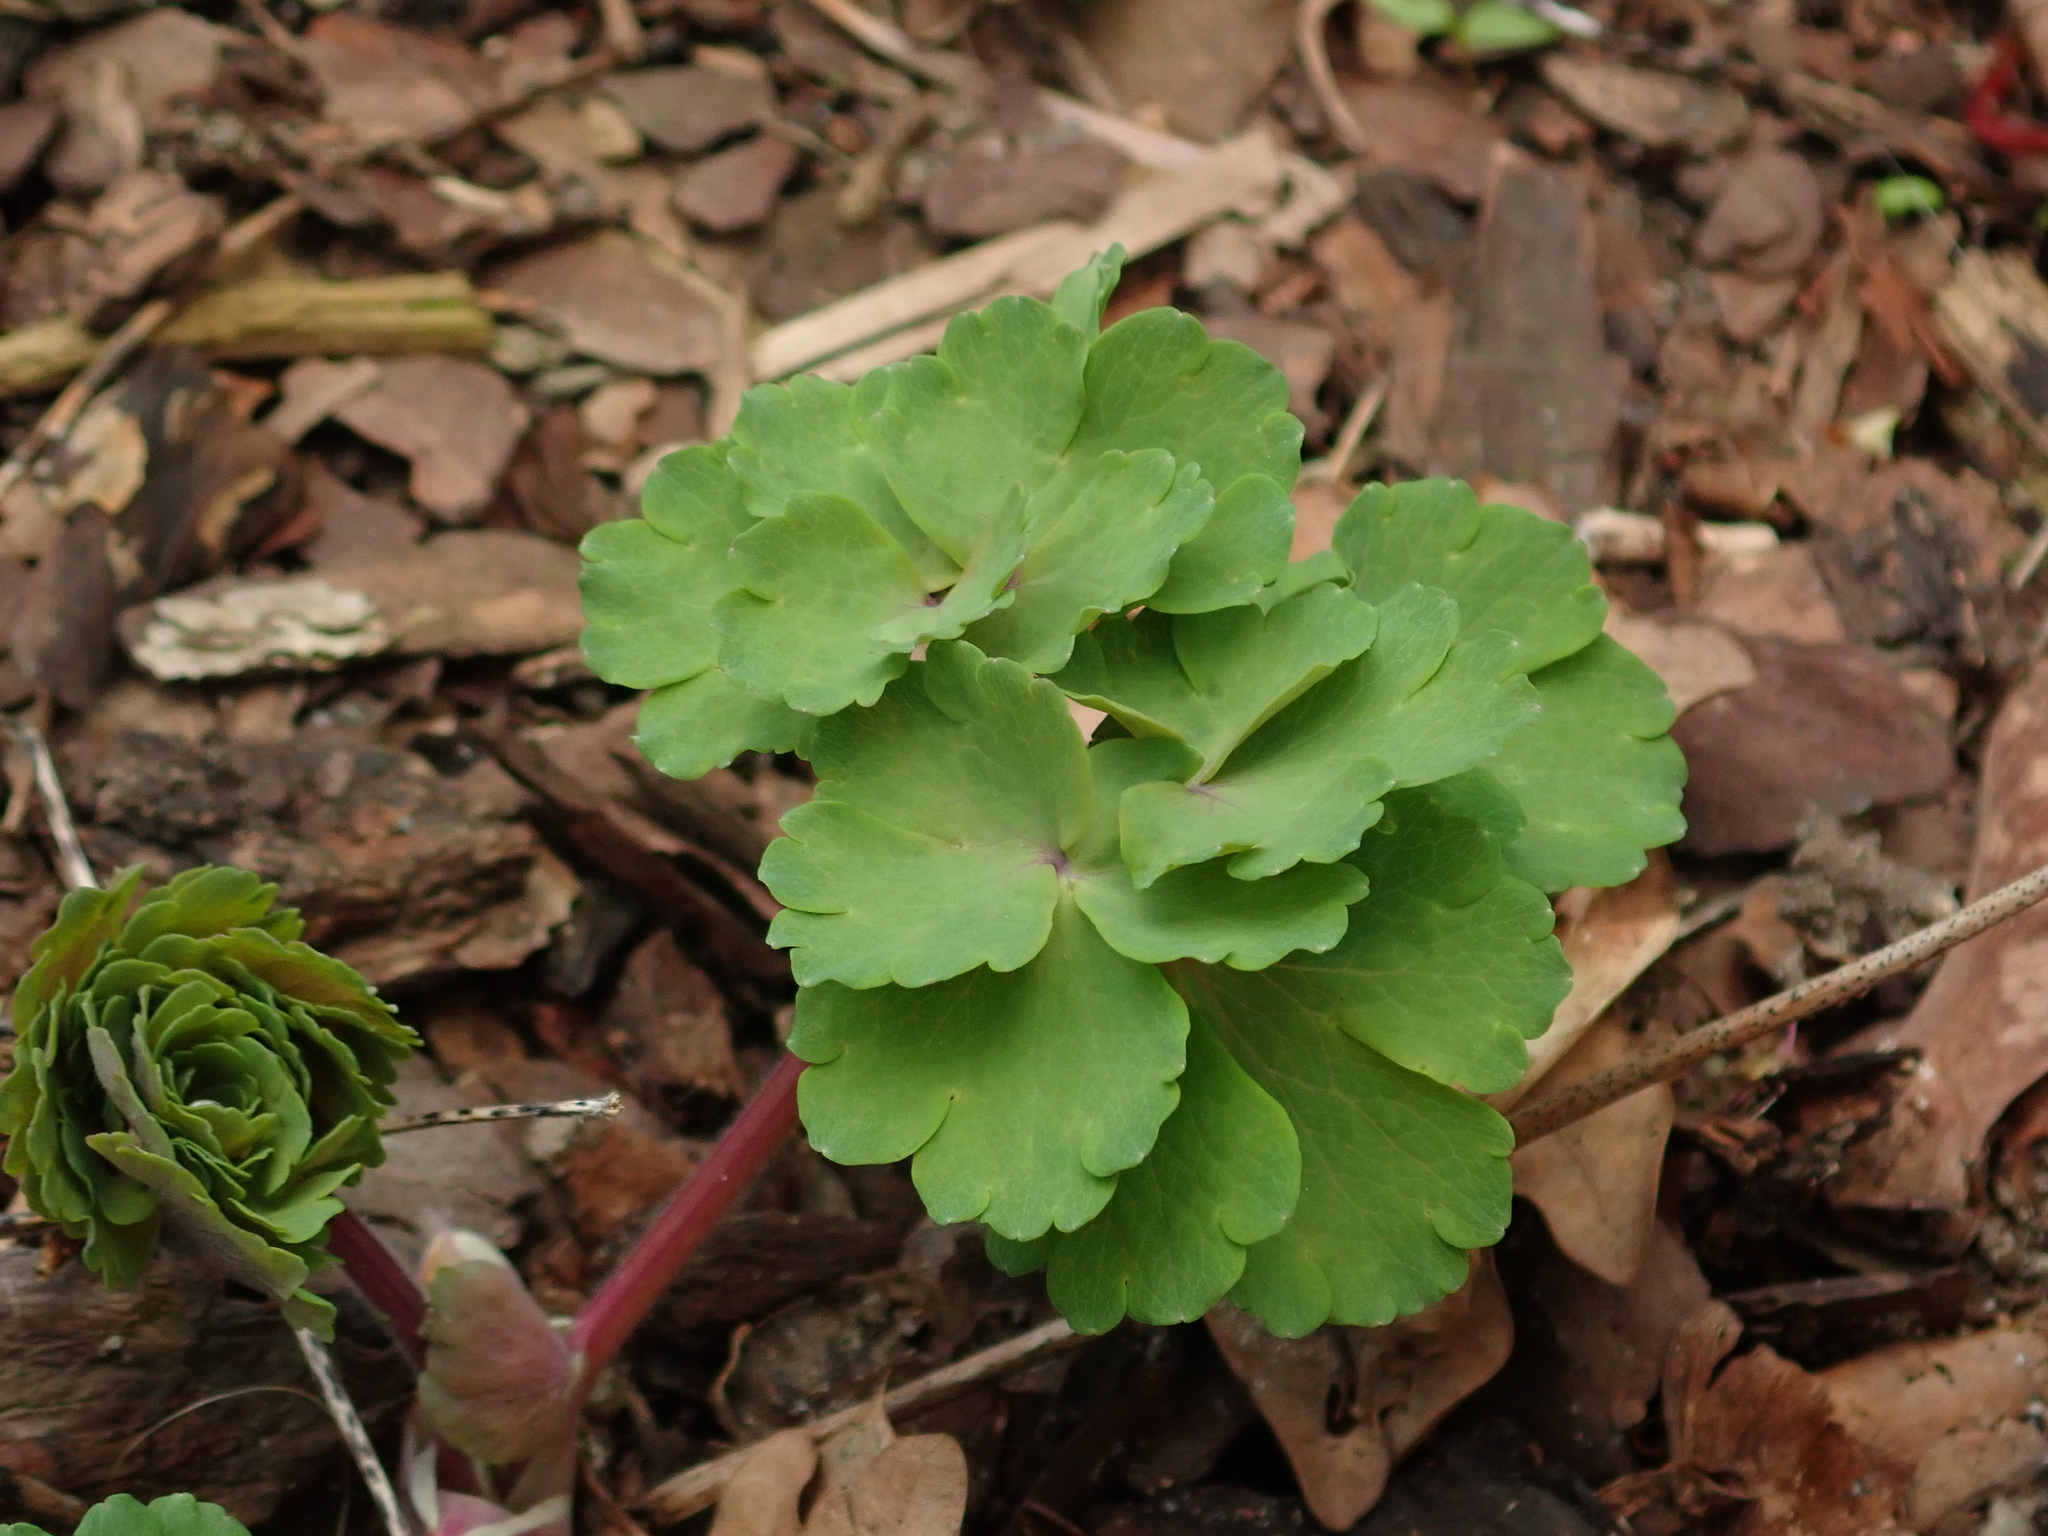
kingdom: Plantae
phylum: Tracheophyta
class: Magnoliopsida
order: Ranunculales
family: Ranunculaceae
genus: Aquilegia
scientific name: Aquilegia vulgaris
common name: Columbine
